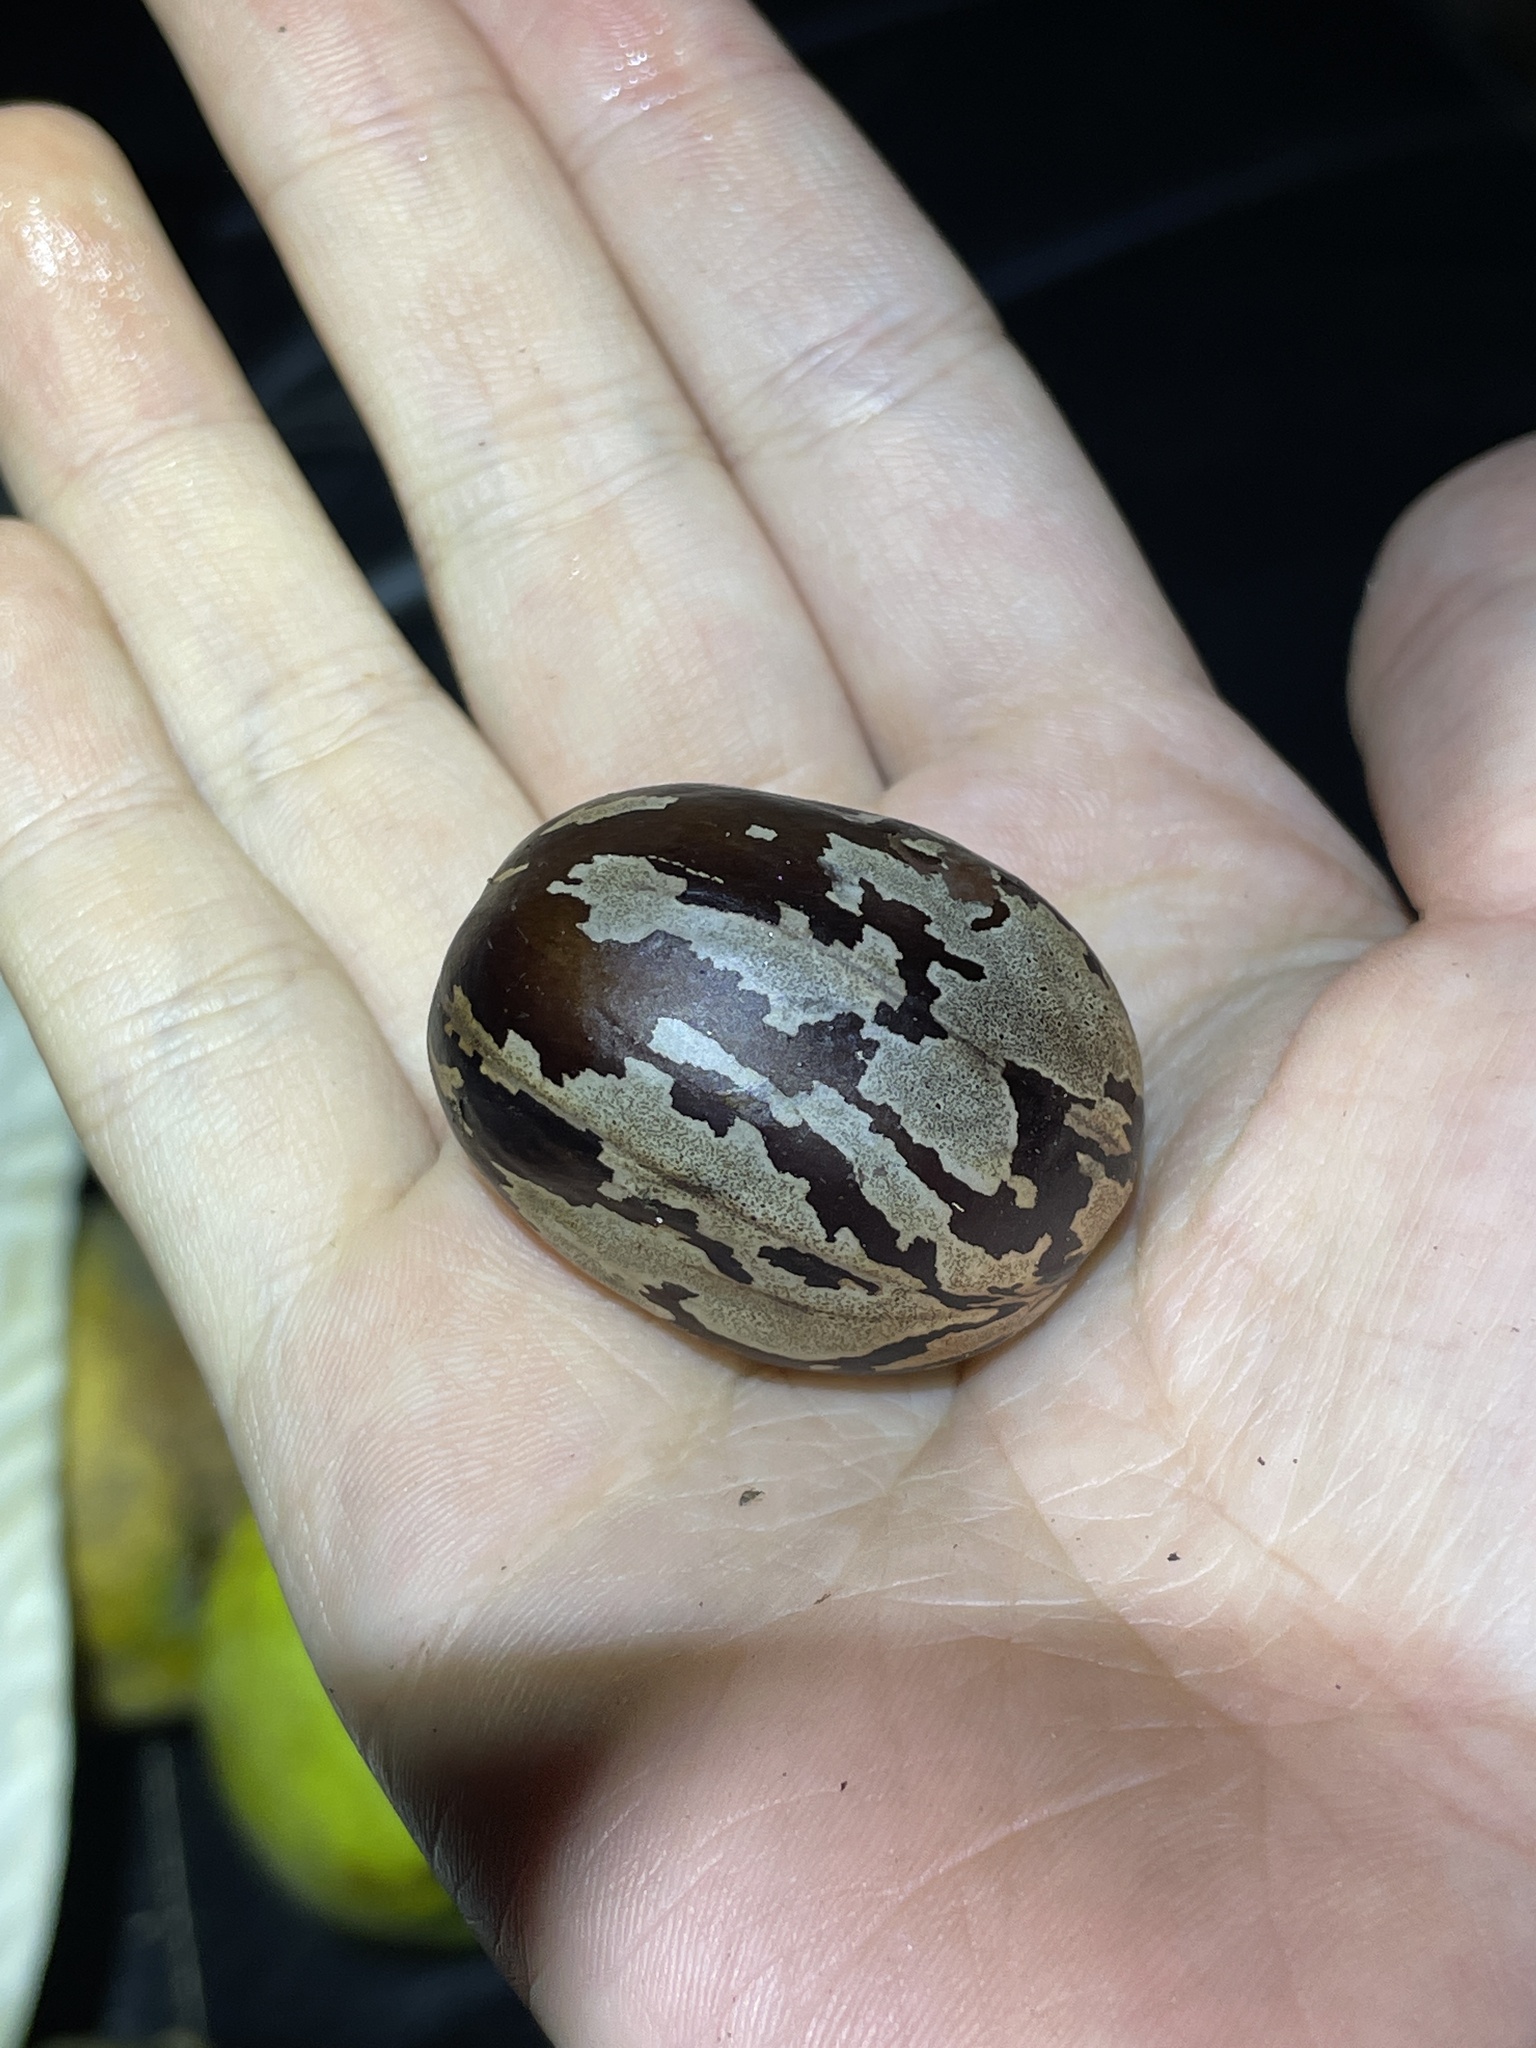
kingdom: Plantae
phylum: Tracheophyta
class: Magnoliopsida
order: Malpighiales
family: Euphorbiaceae
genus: Hevea
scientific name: Hevea brasiliensis
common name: Natural rubber
